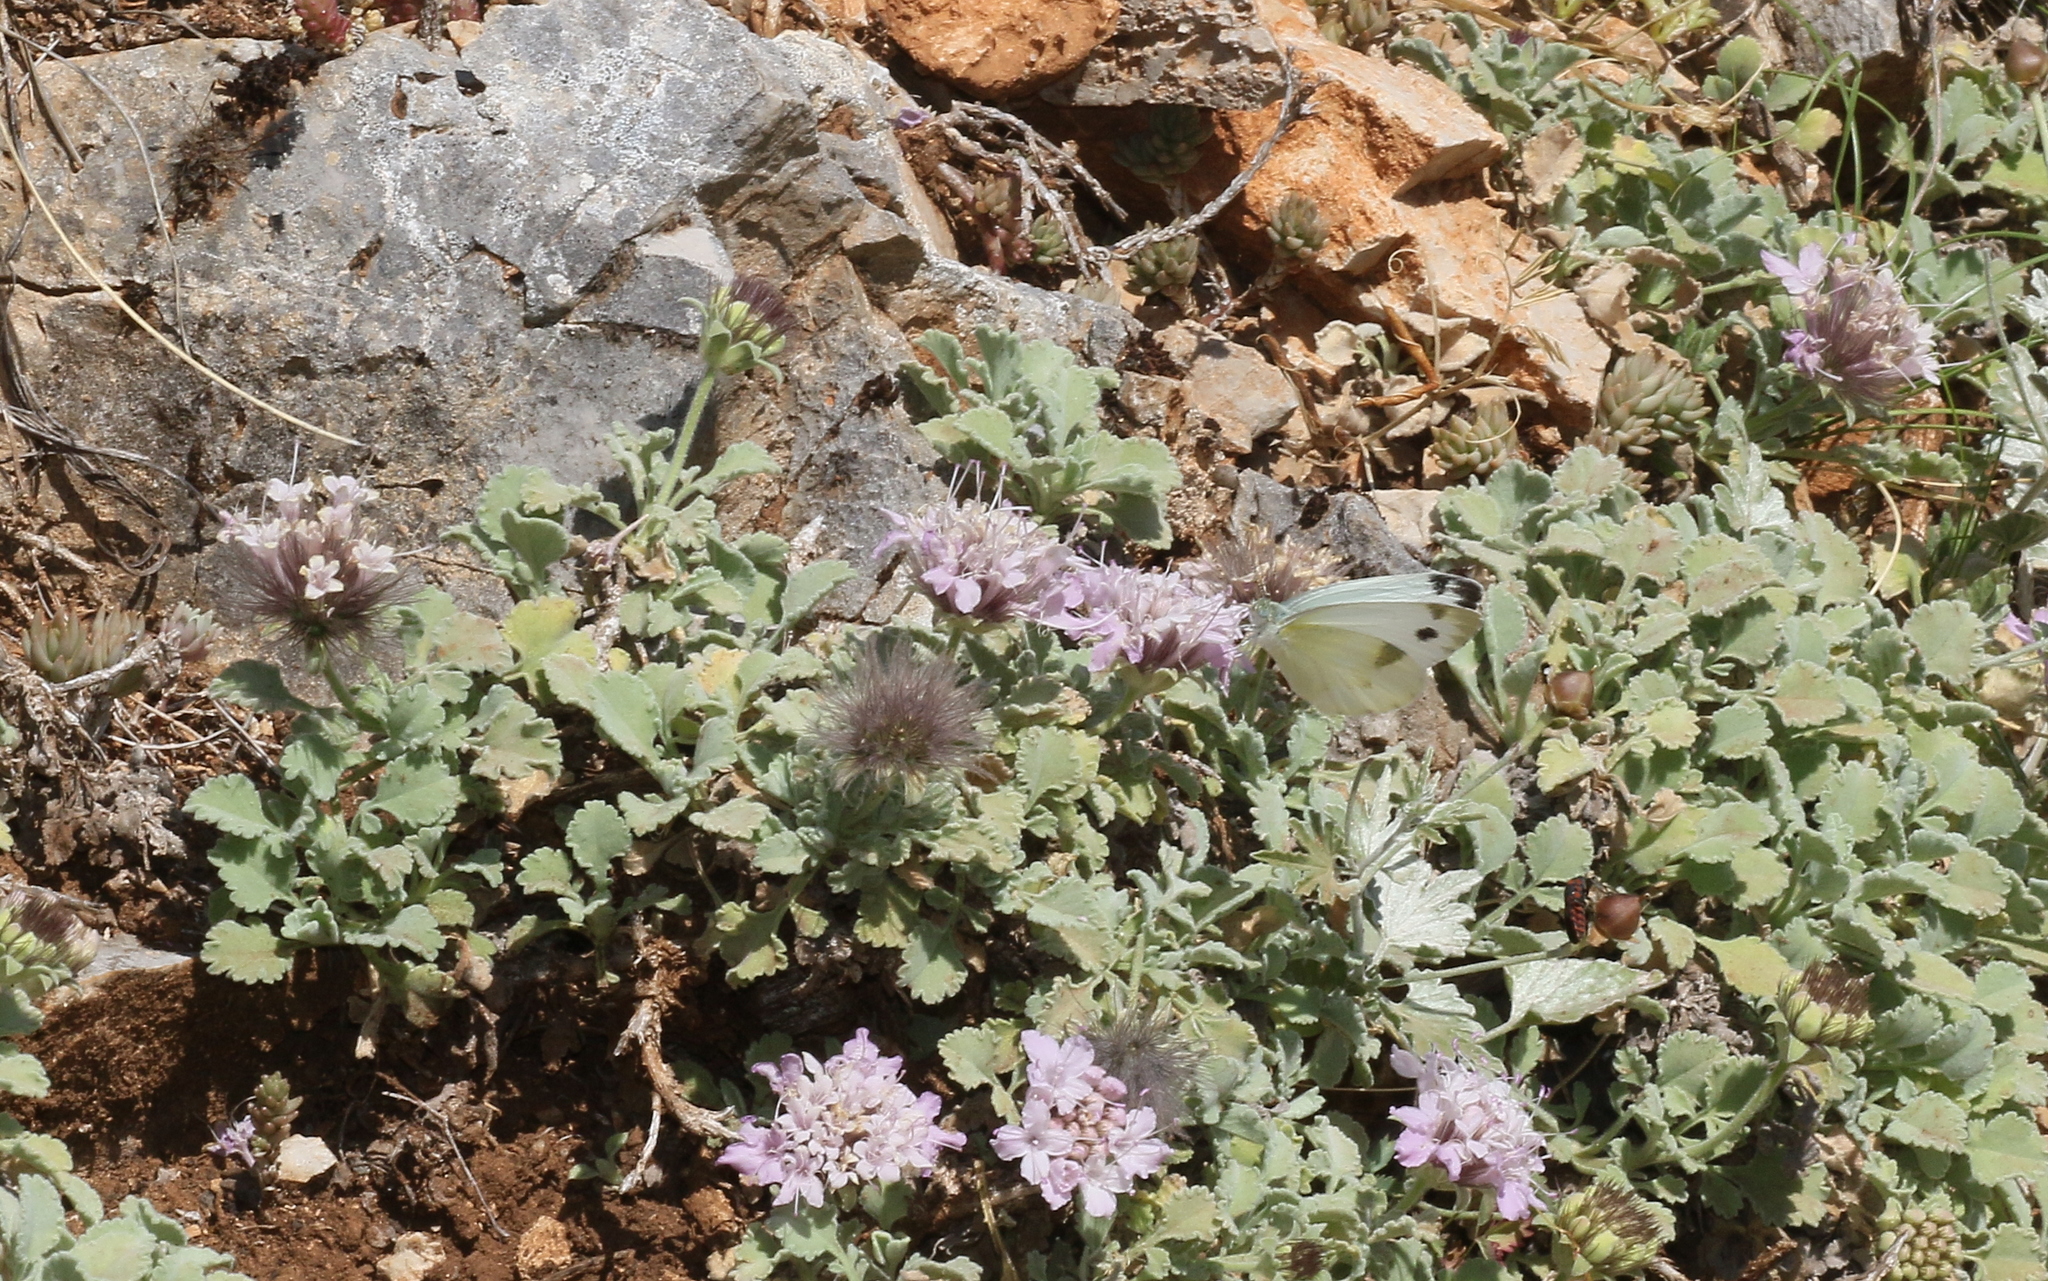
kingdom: Animalia
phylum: Arthropoda
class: Insecta
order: Lepidoptera
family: Pieridae
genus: Pieris
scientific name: Pieris krueperi
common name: Krueper's small white
